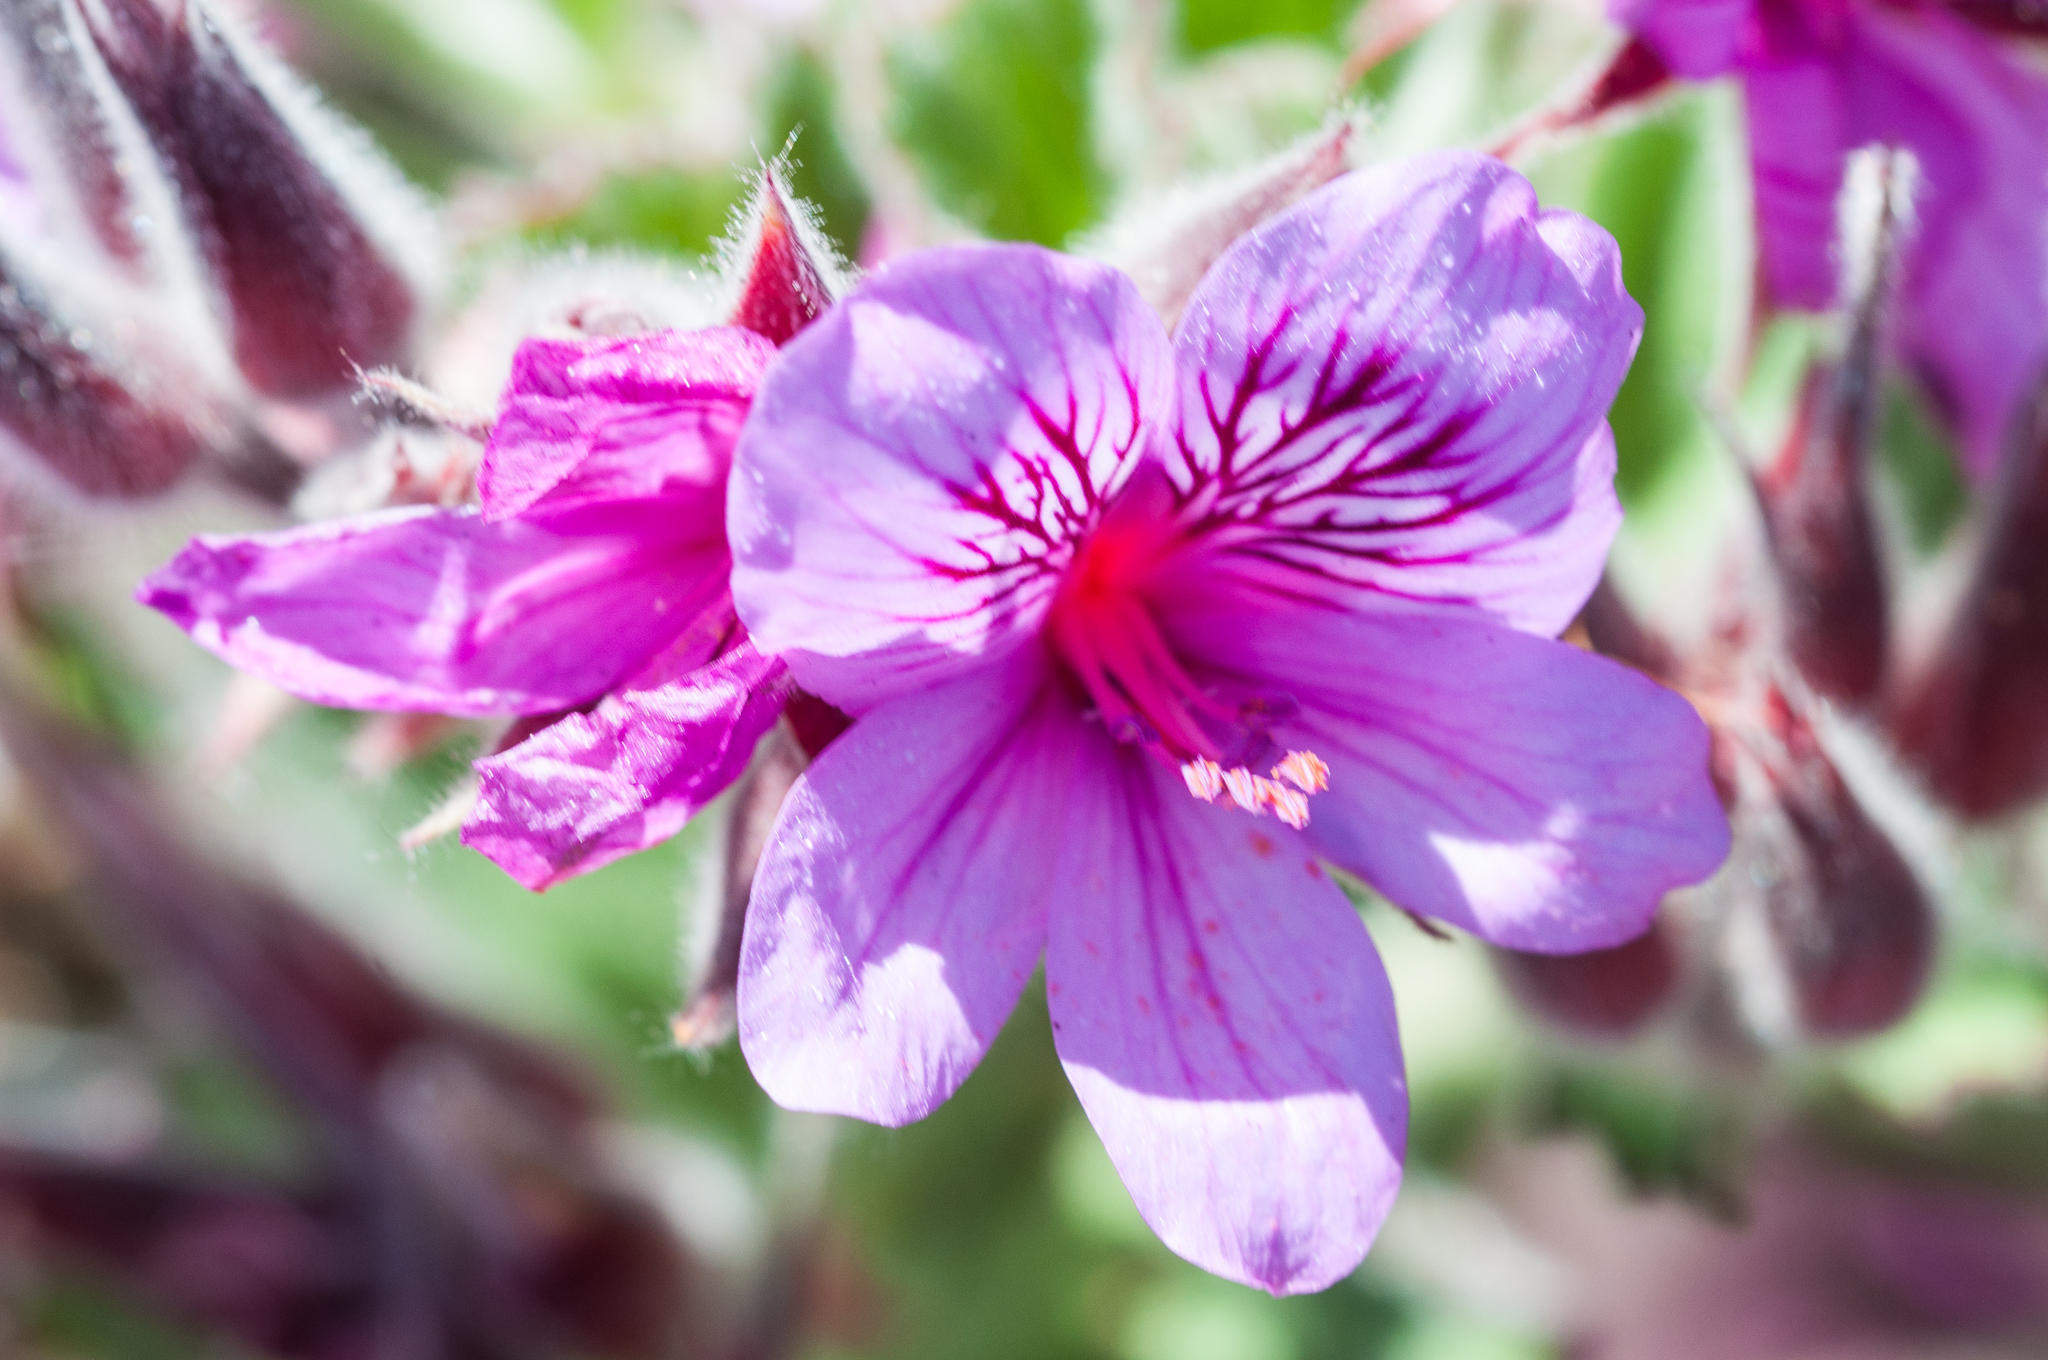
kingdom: Plantae
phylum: Tracheophyta
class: Magnoliopsida
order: Geraniales
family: Geraniaceae
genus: Pelargonium
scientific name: Pelargonium cucullatum
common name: Tree pelargonium
